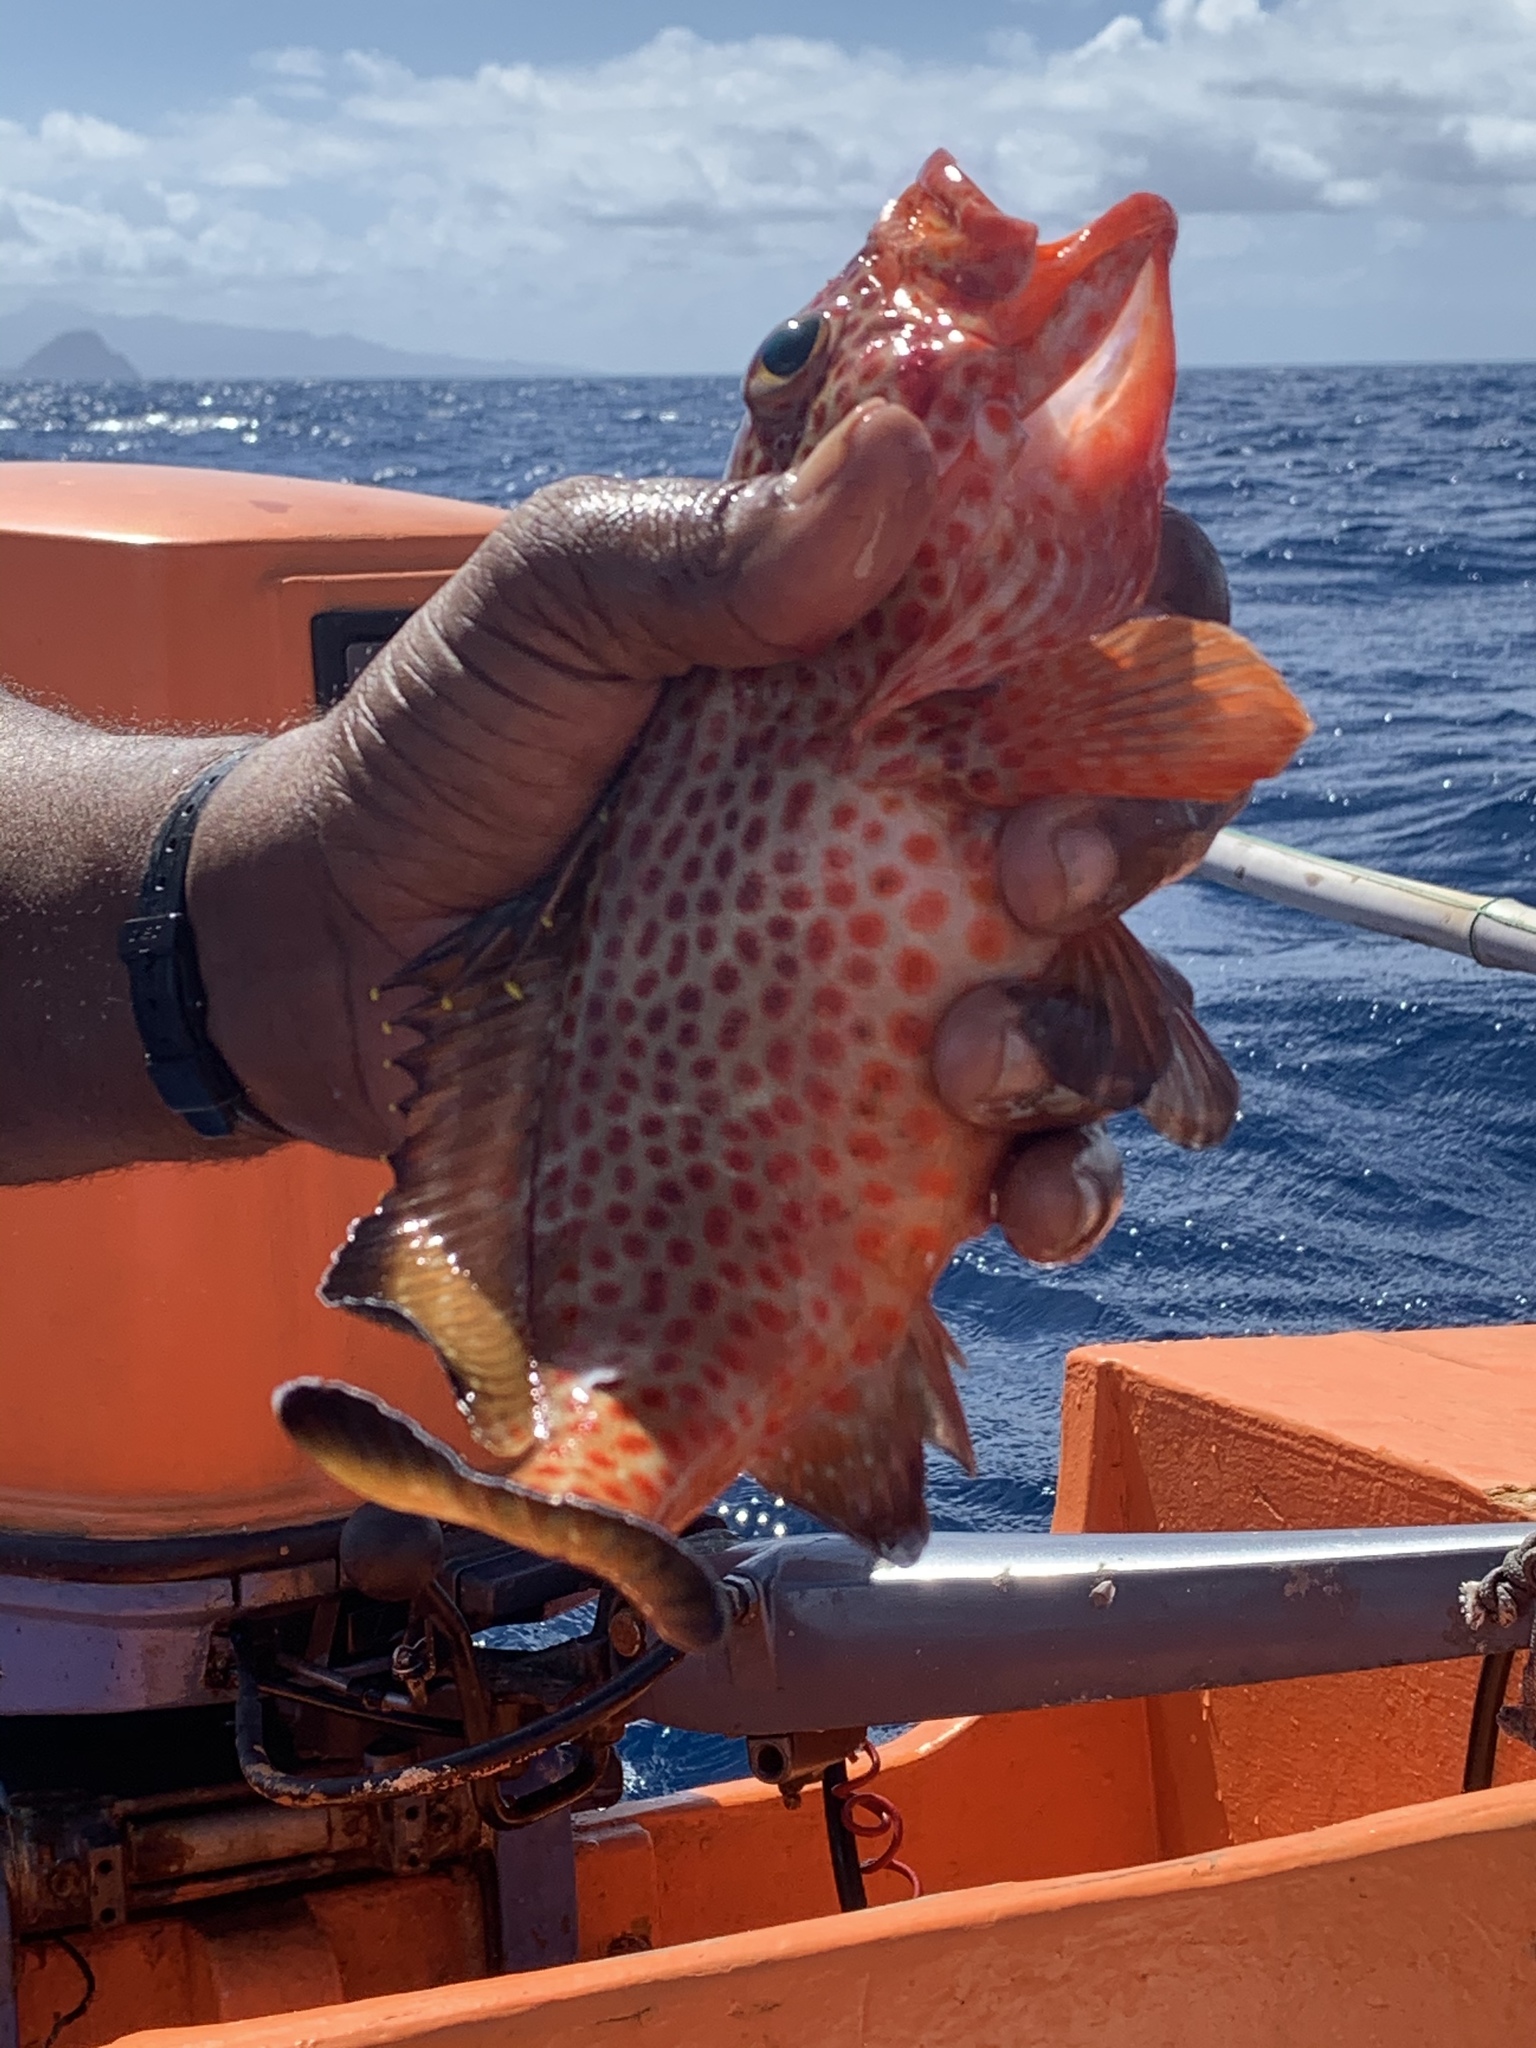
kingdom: Animalia
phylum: Chordata
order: Perciformes
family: Serranidae
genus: Epinephelus
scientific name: Epinephelus guttatus
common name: Red hind
